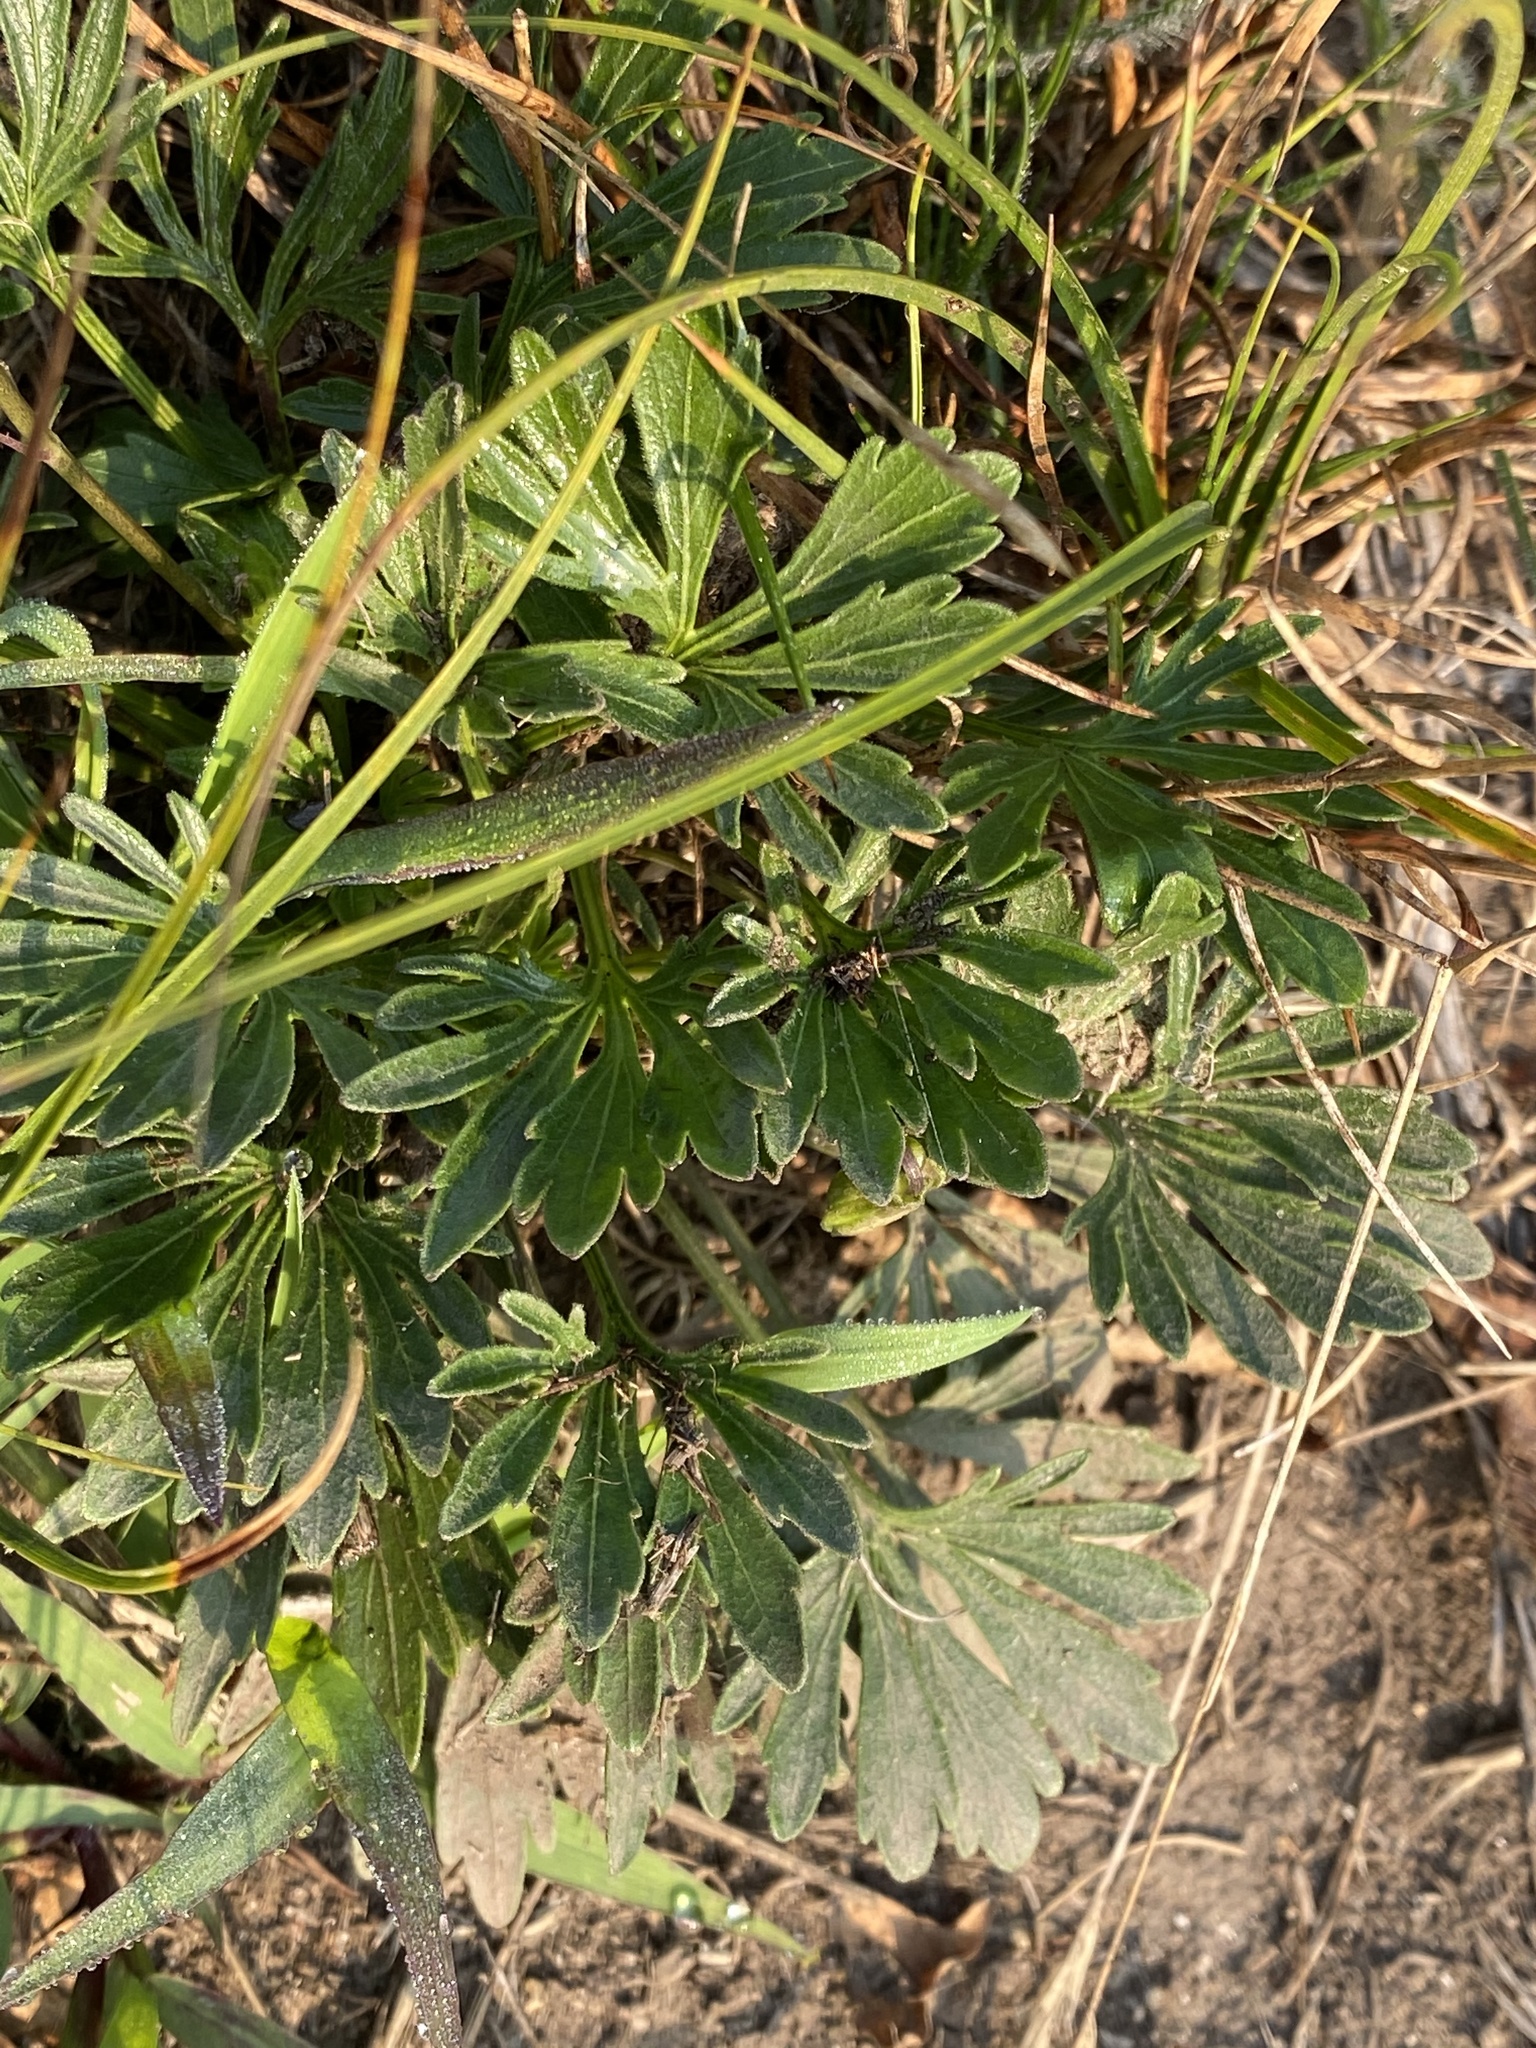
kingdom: Plantae
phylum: Tracheophyta
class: Magnoliopsida
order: Malpighiales
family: Violaceae
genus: Viola
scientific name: Viola pedata
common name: Pansy violet
